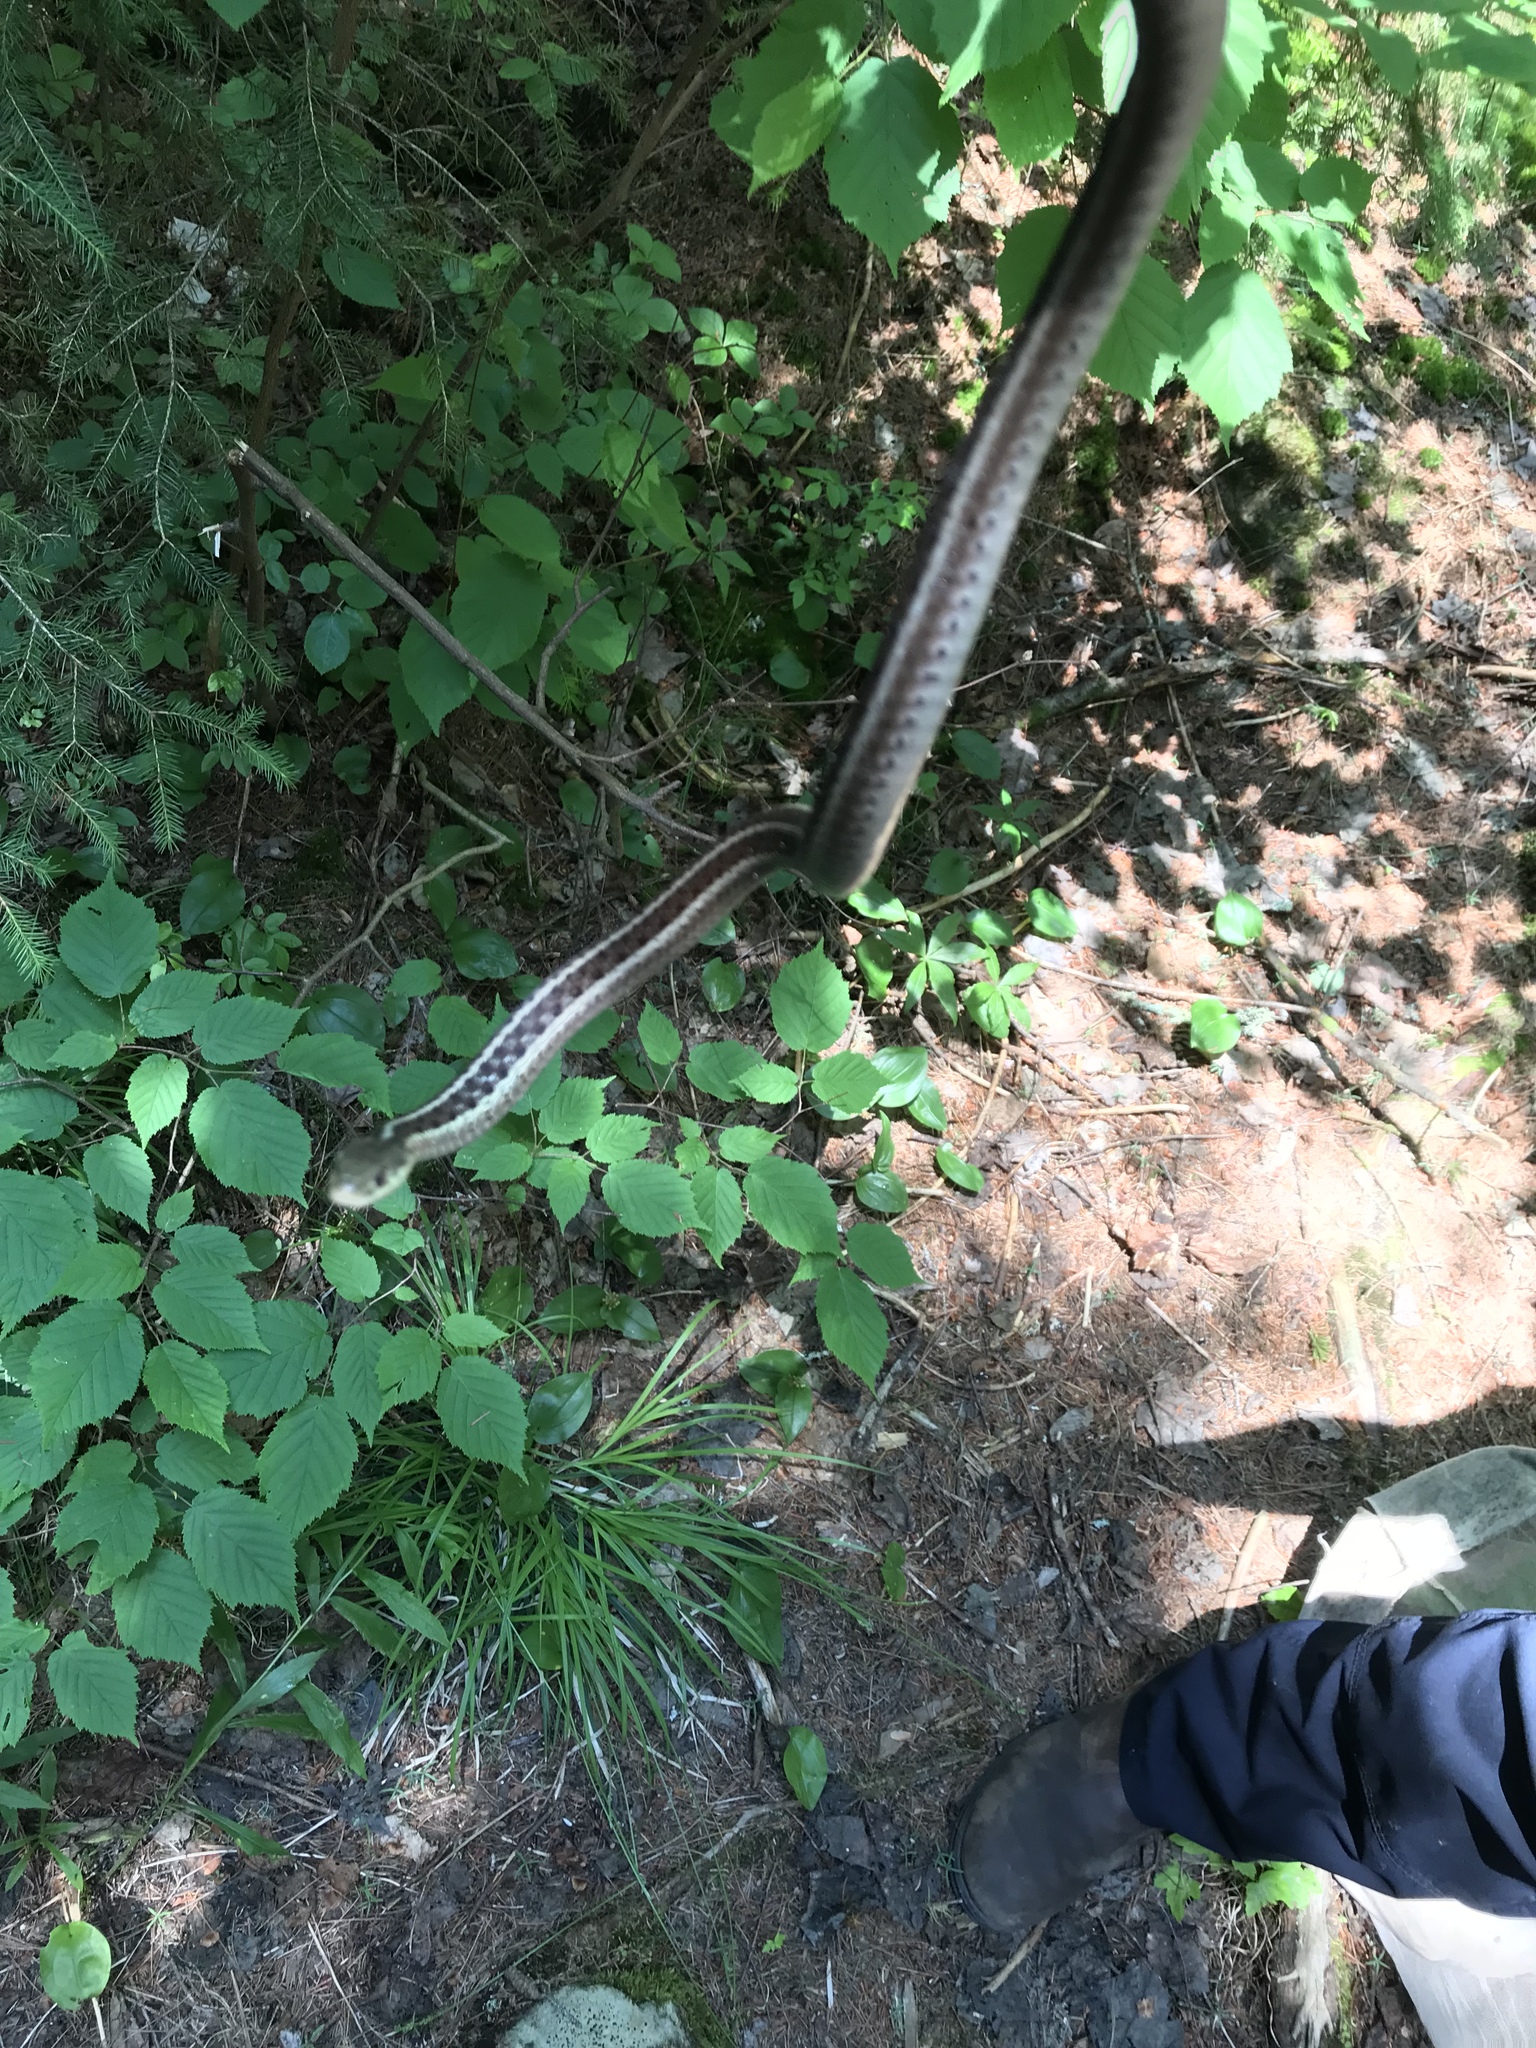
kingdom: Animalia
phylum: Chordata
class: Squamata
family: Colubridae
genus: Thamnophis
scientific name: Thamnophis sirtalis
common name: Common garter snake
